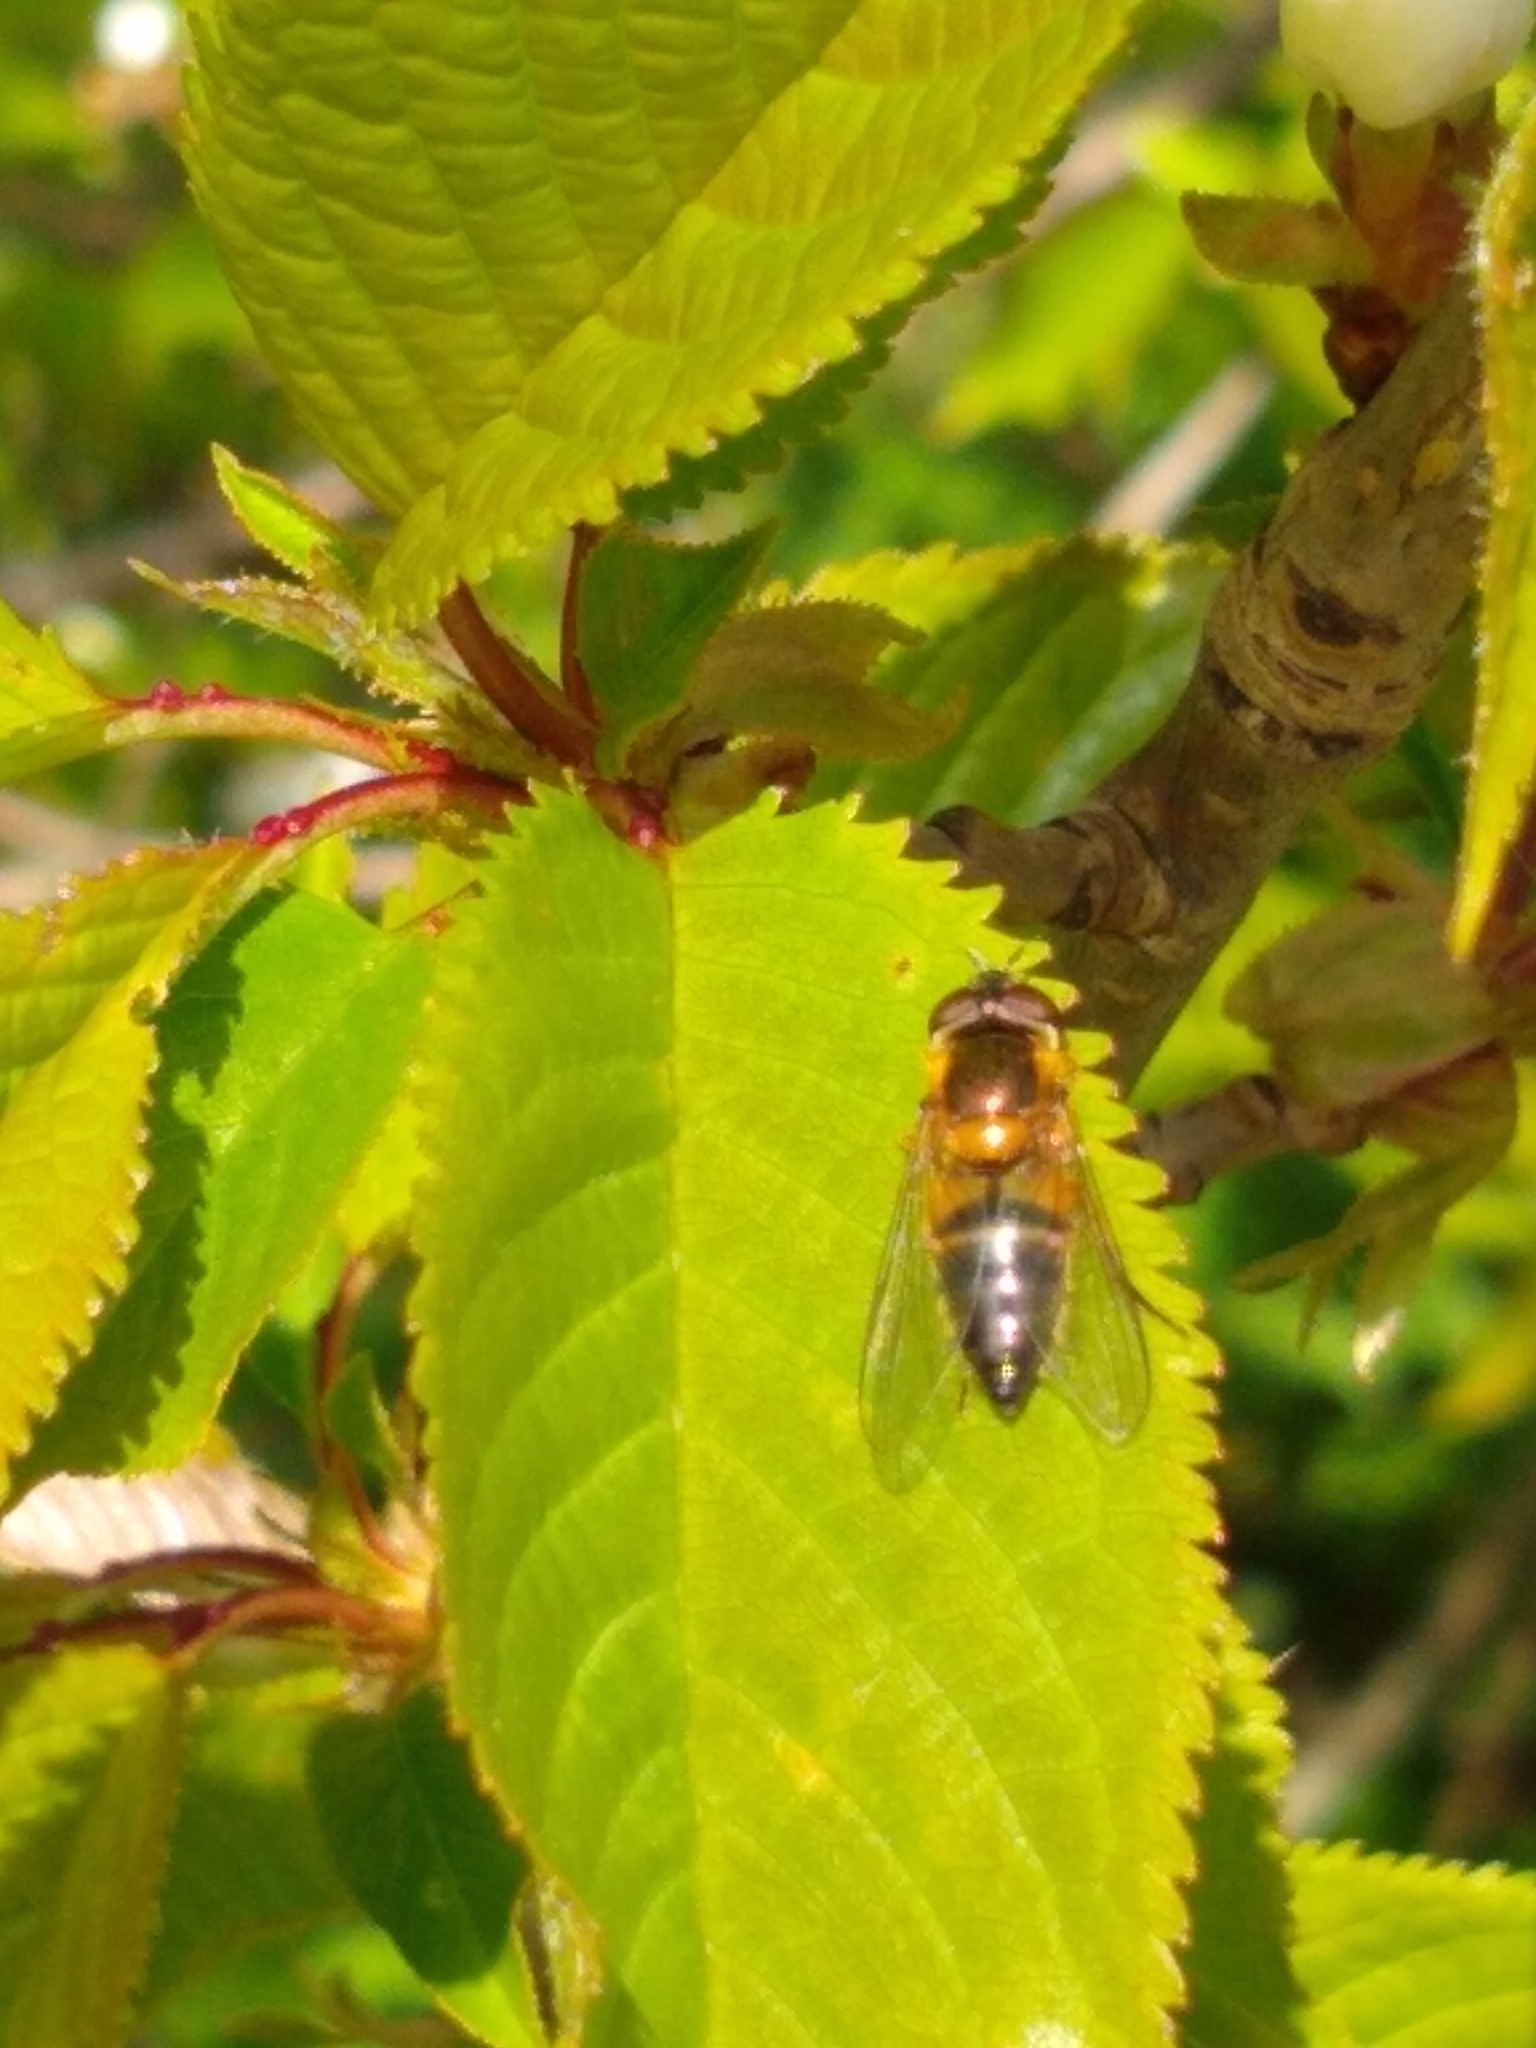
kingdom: Animalia
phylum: Arthropoda
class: Insecta
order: Diptera
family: Syrphidae
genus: Epistrophe
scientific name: Epistrophe eligans
